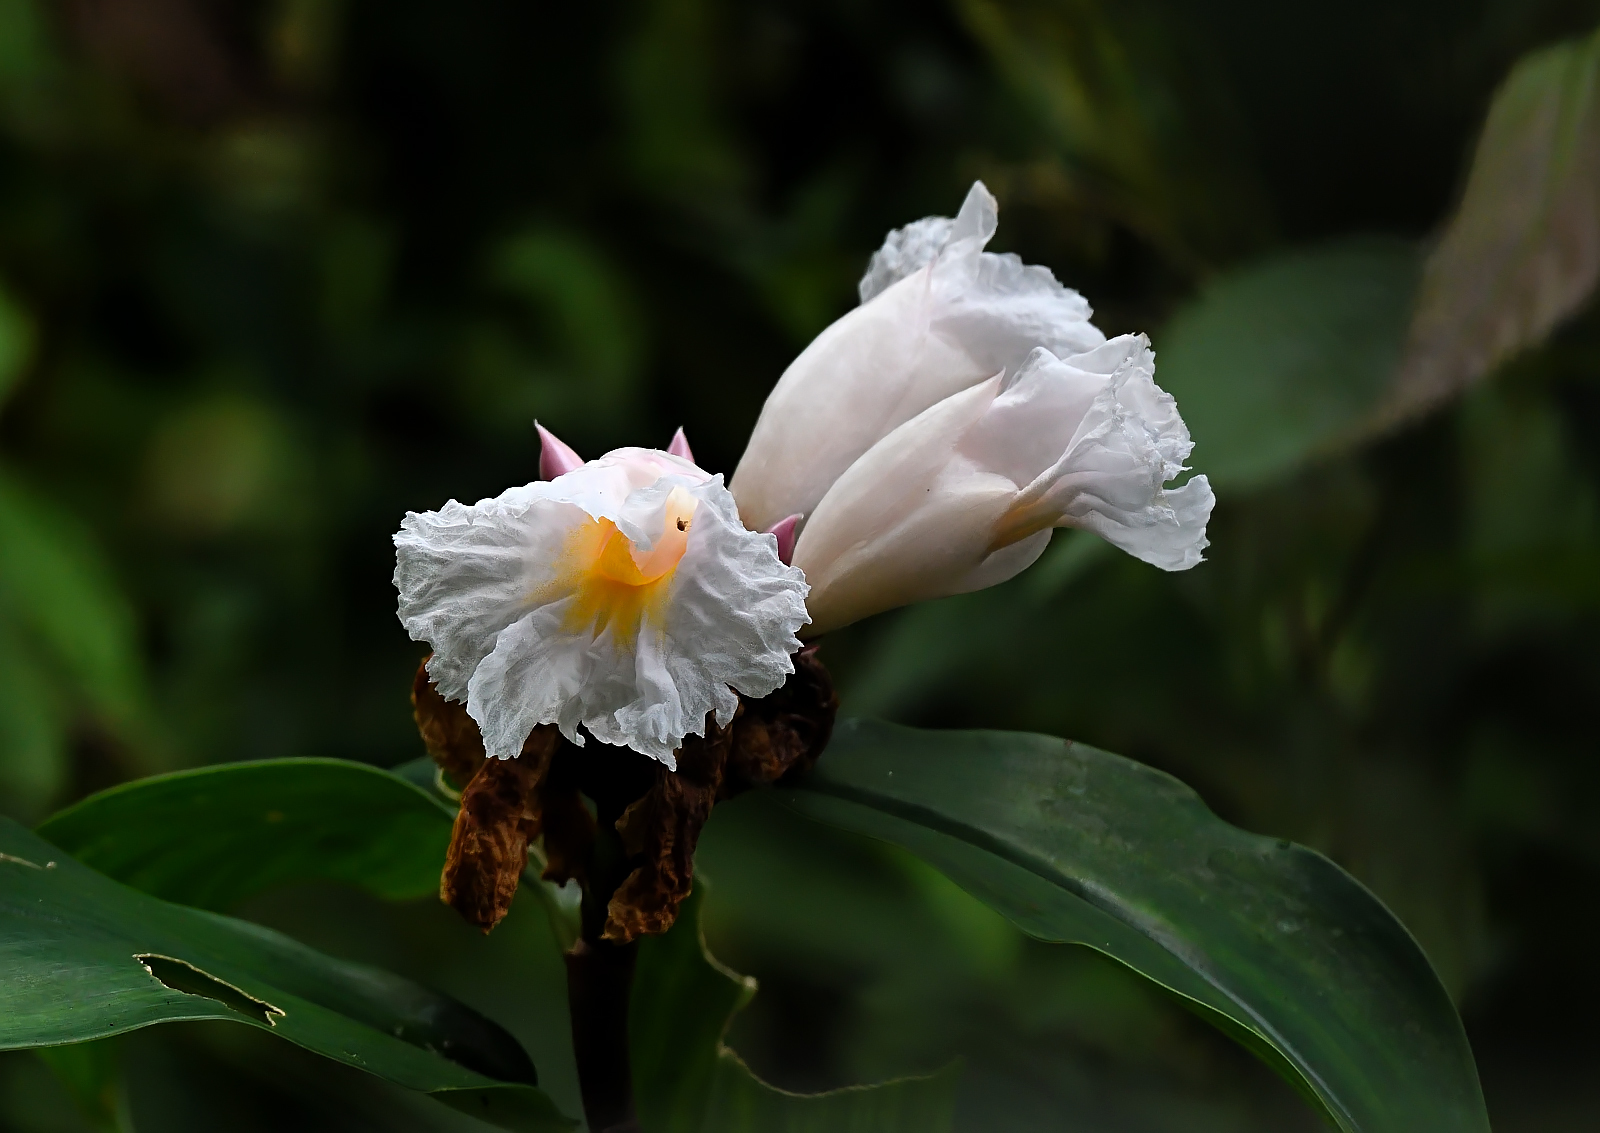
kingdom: Plantae
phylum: Tracheophyta
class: Liliopsida
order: Zingiberales
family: Costaceae
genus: Hellenia
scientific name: Hellenia speciosa
